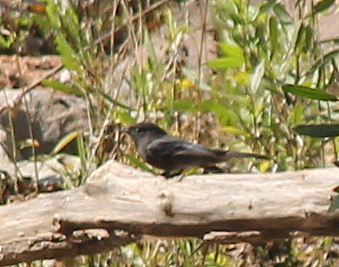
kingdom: Animalia
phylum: Chordata
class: Aves
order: Passeriformes
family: Tyrannidae
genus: Sayornis
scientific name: Sayornis nigricans
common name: Black phoebe
